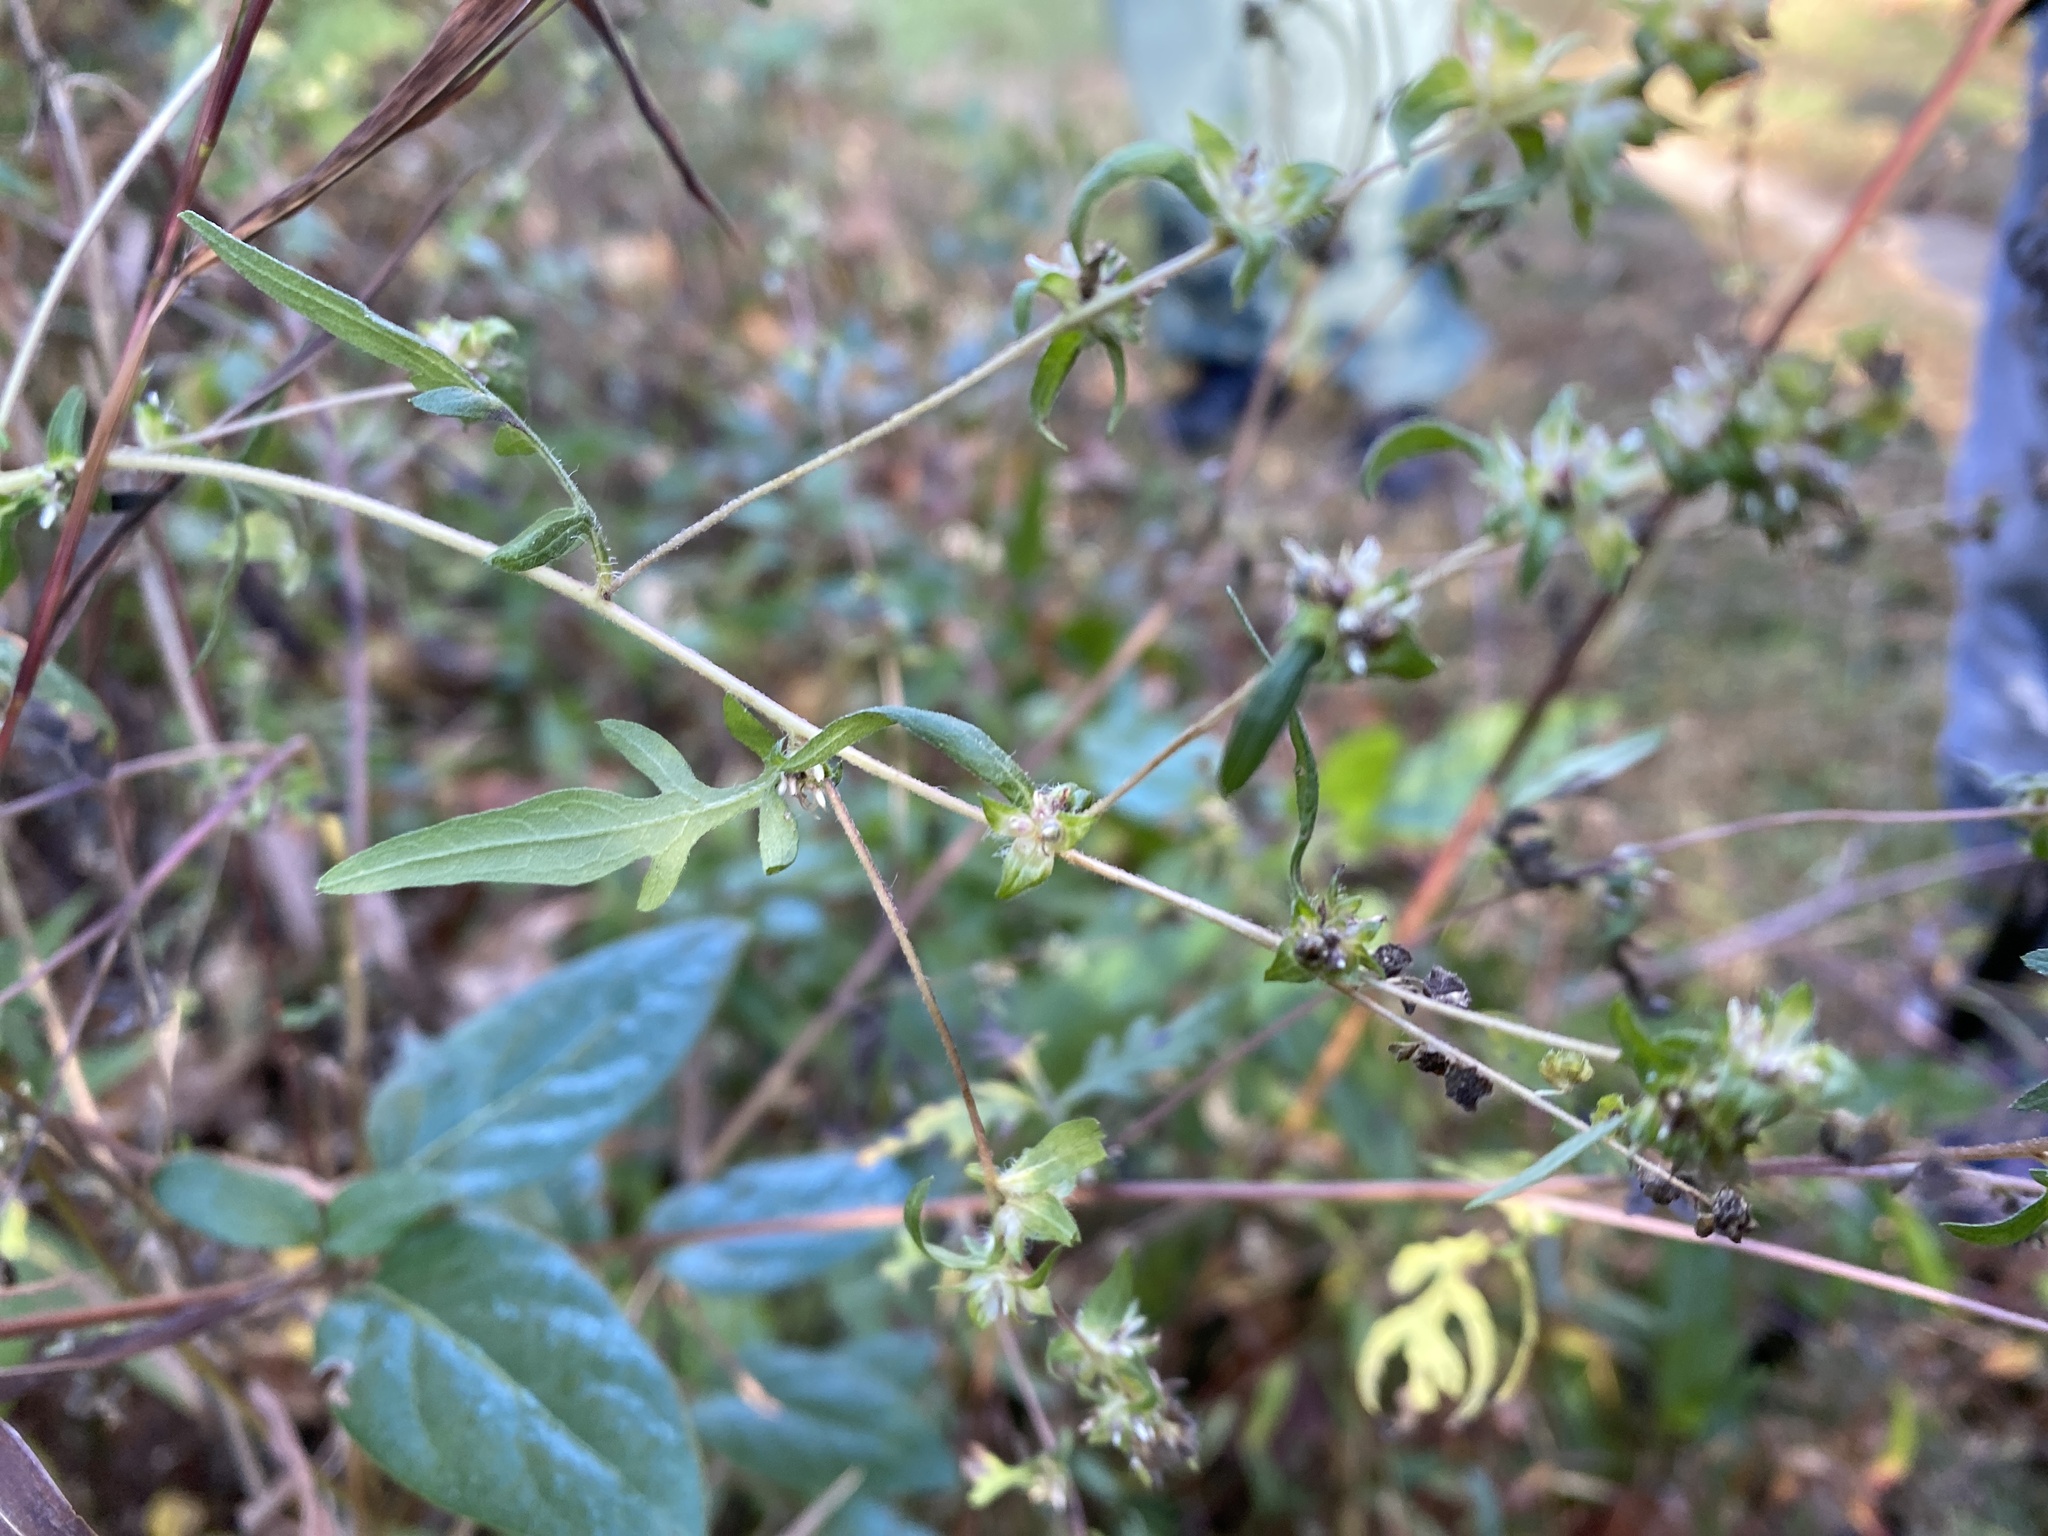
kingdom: Plantae
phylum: Tracheophyta
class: Magnoliopsida
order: Asterales
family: Asteraceae
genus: Ambrosia
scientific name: Ambrosia artemisiifolia
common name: Annual ragweed
